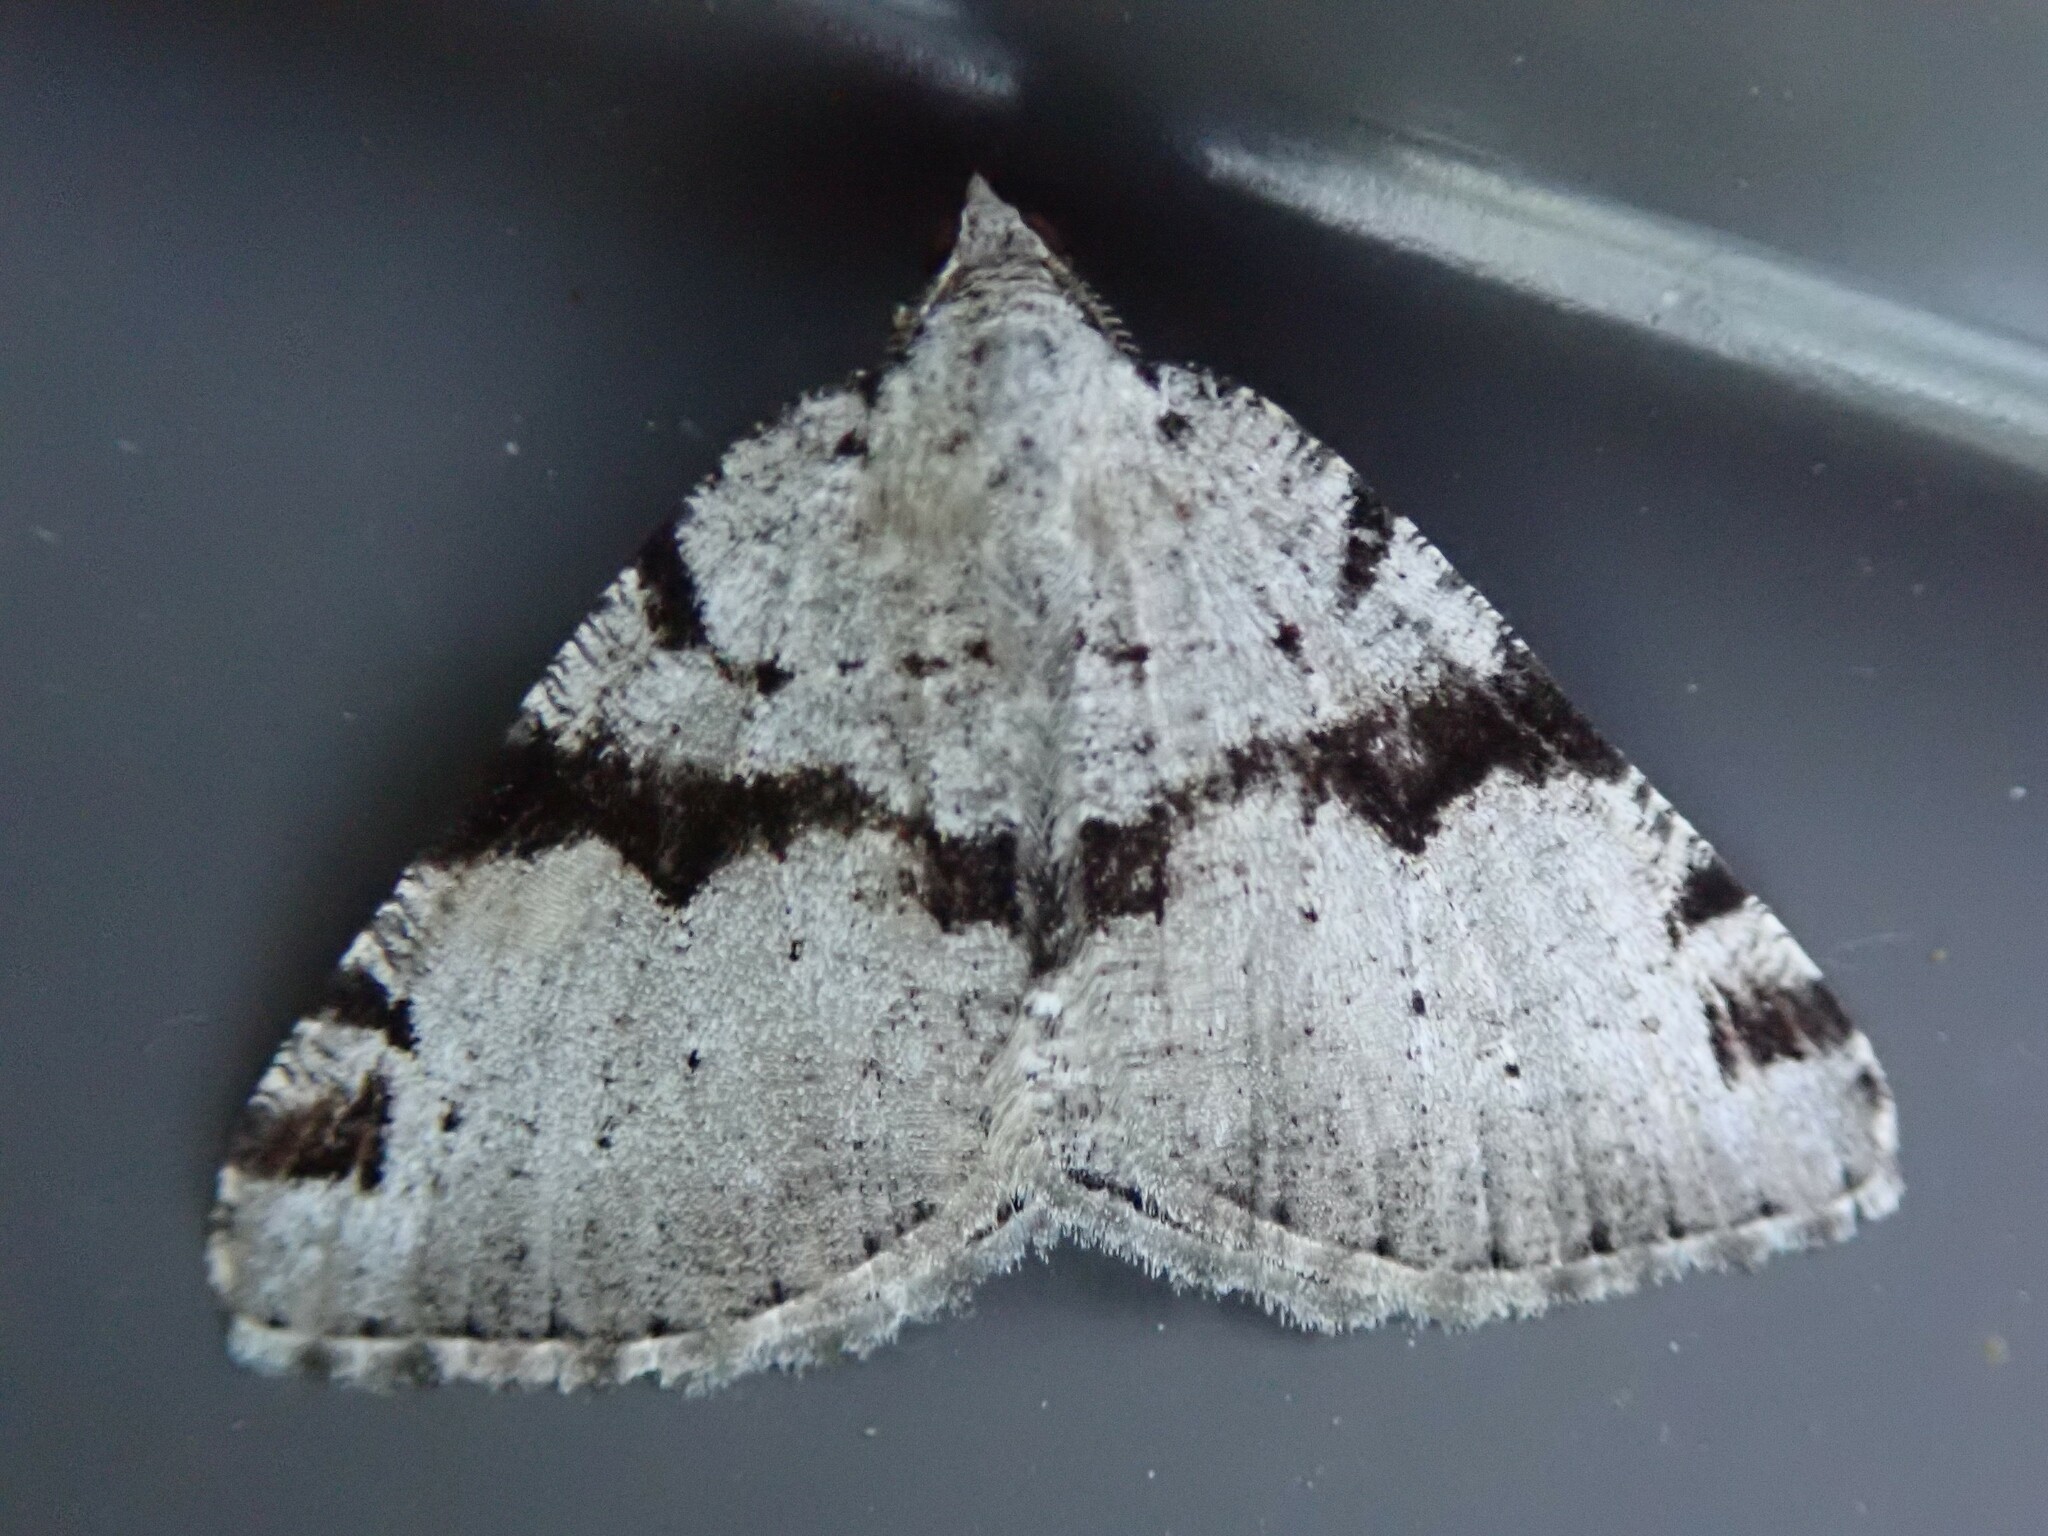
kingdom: Animalia
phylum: Arthropoda
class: Insecta
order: Lepidoptera
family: Geometridae
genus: Macaria
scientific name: Macaria bitactata
